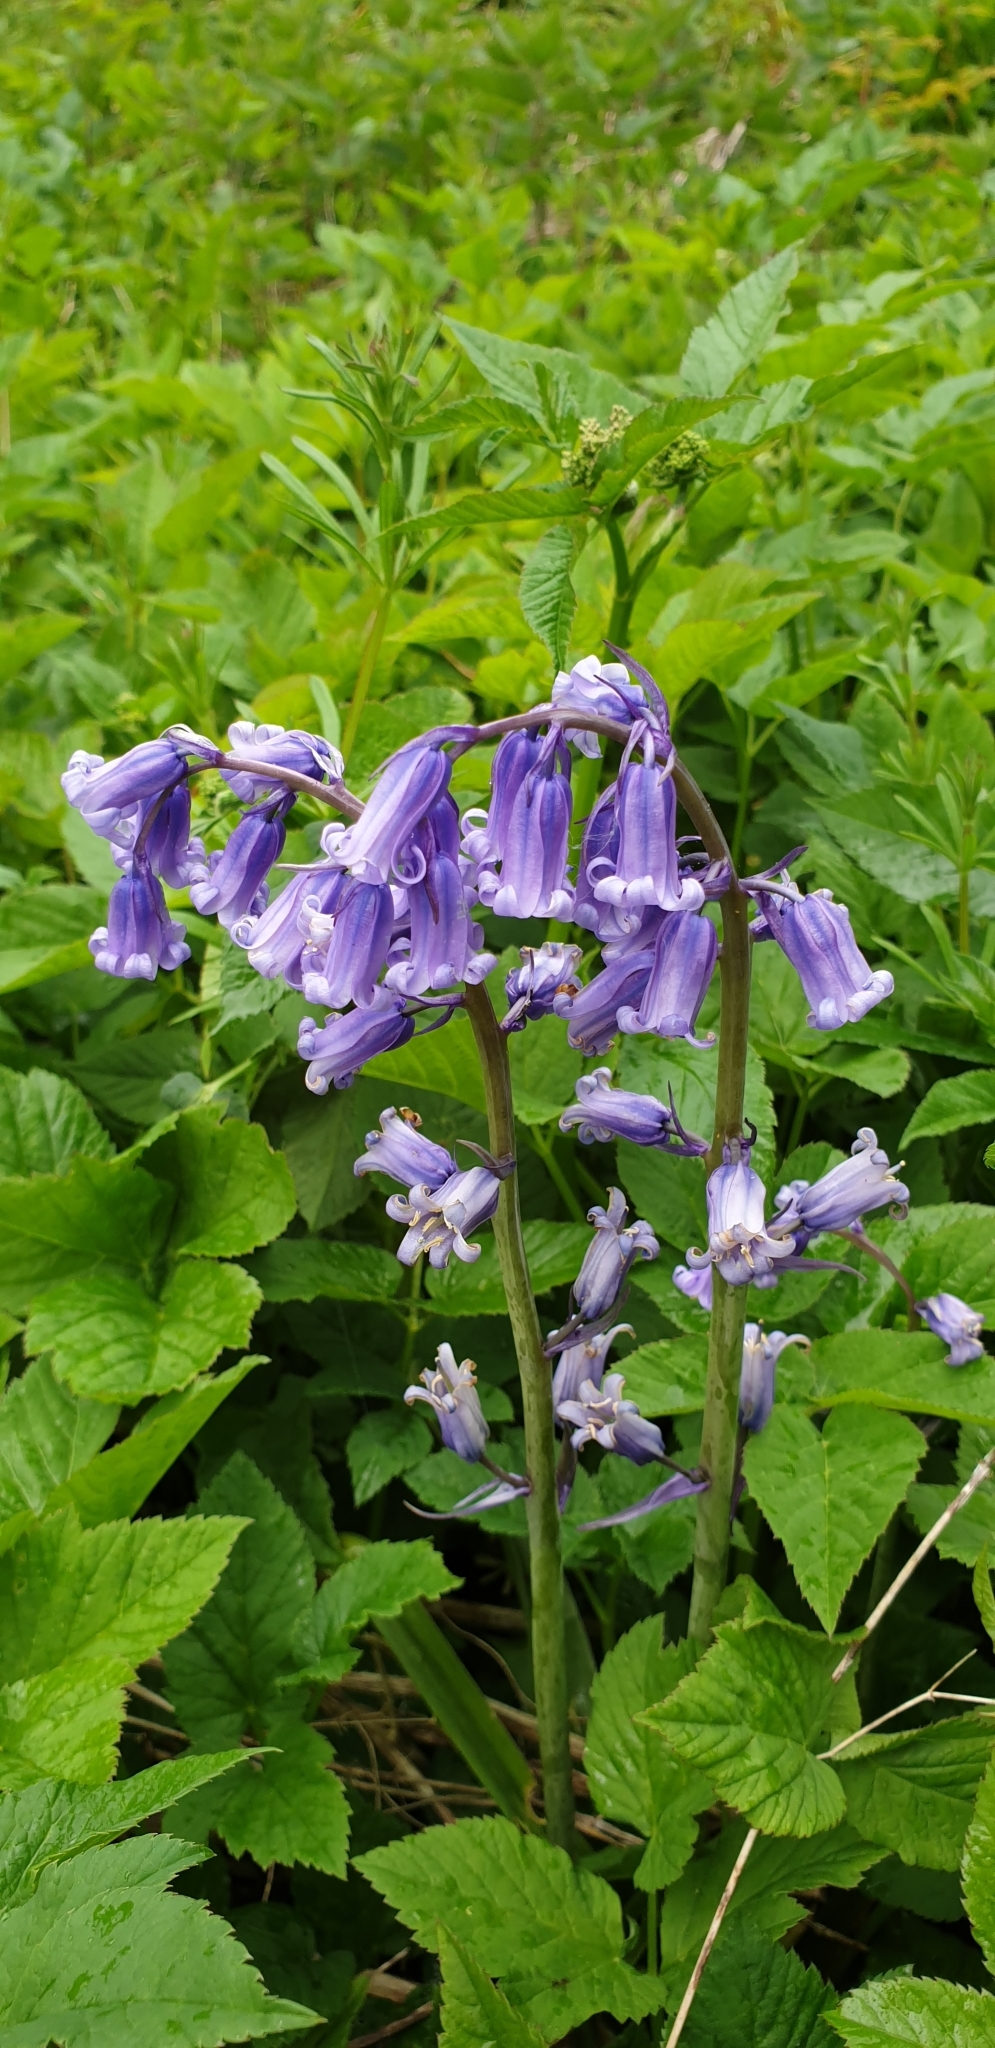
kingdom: Plantae
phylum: Tracheophyta
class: Liliopsida
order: Asparagales
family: Asparagaceae
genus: Hyacinthoides
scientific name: Hyacinthoides non-scripta
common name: Bluebell
